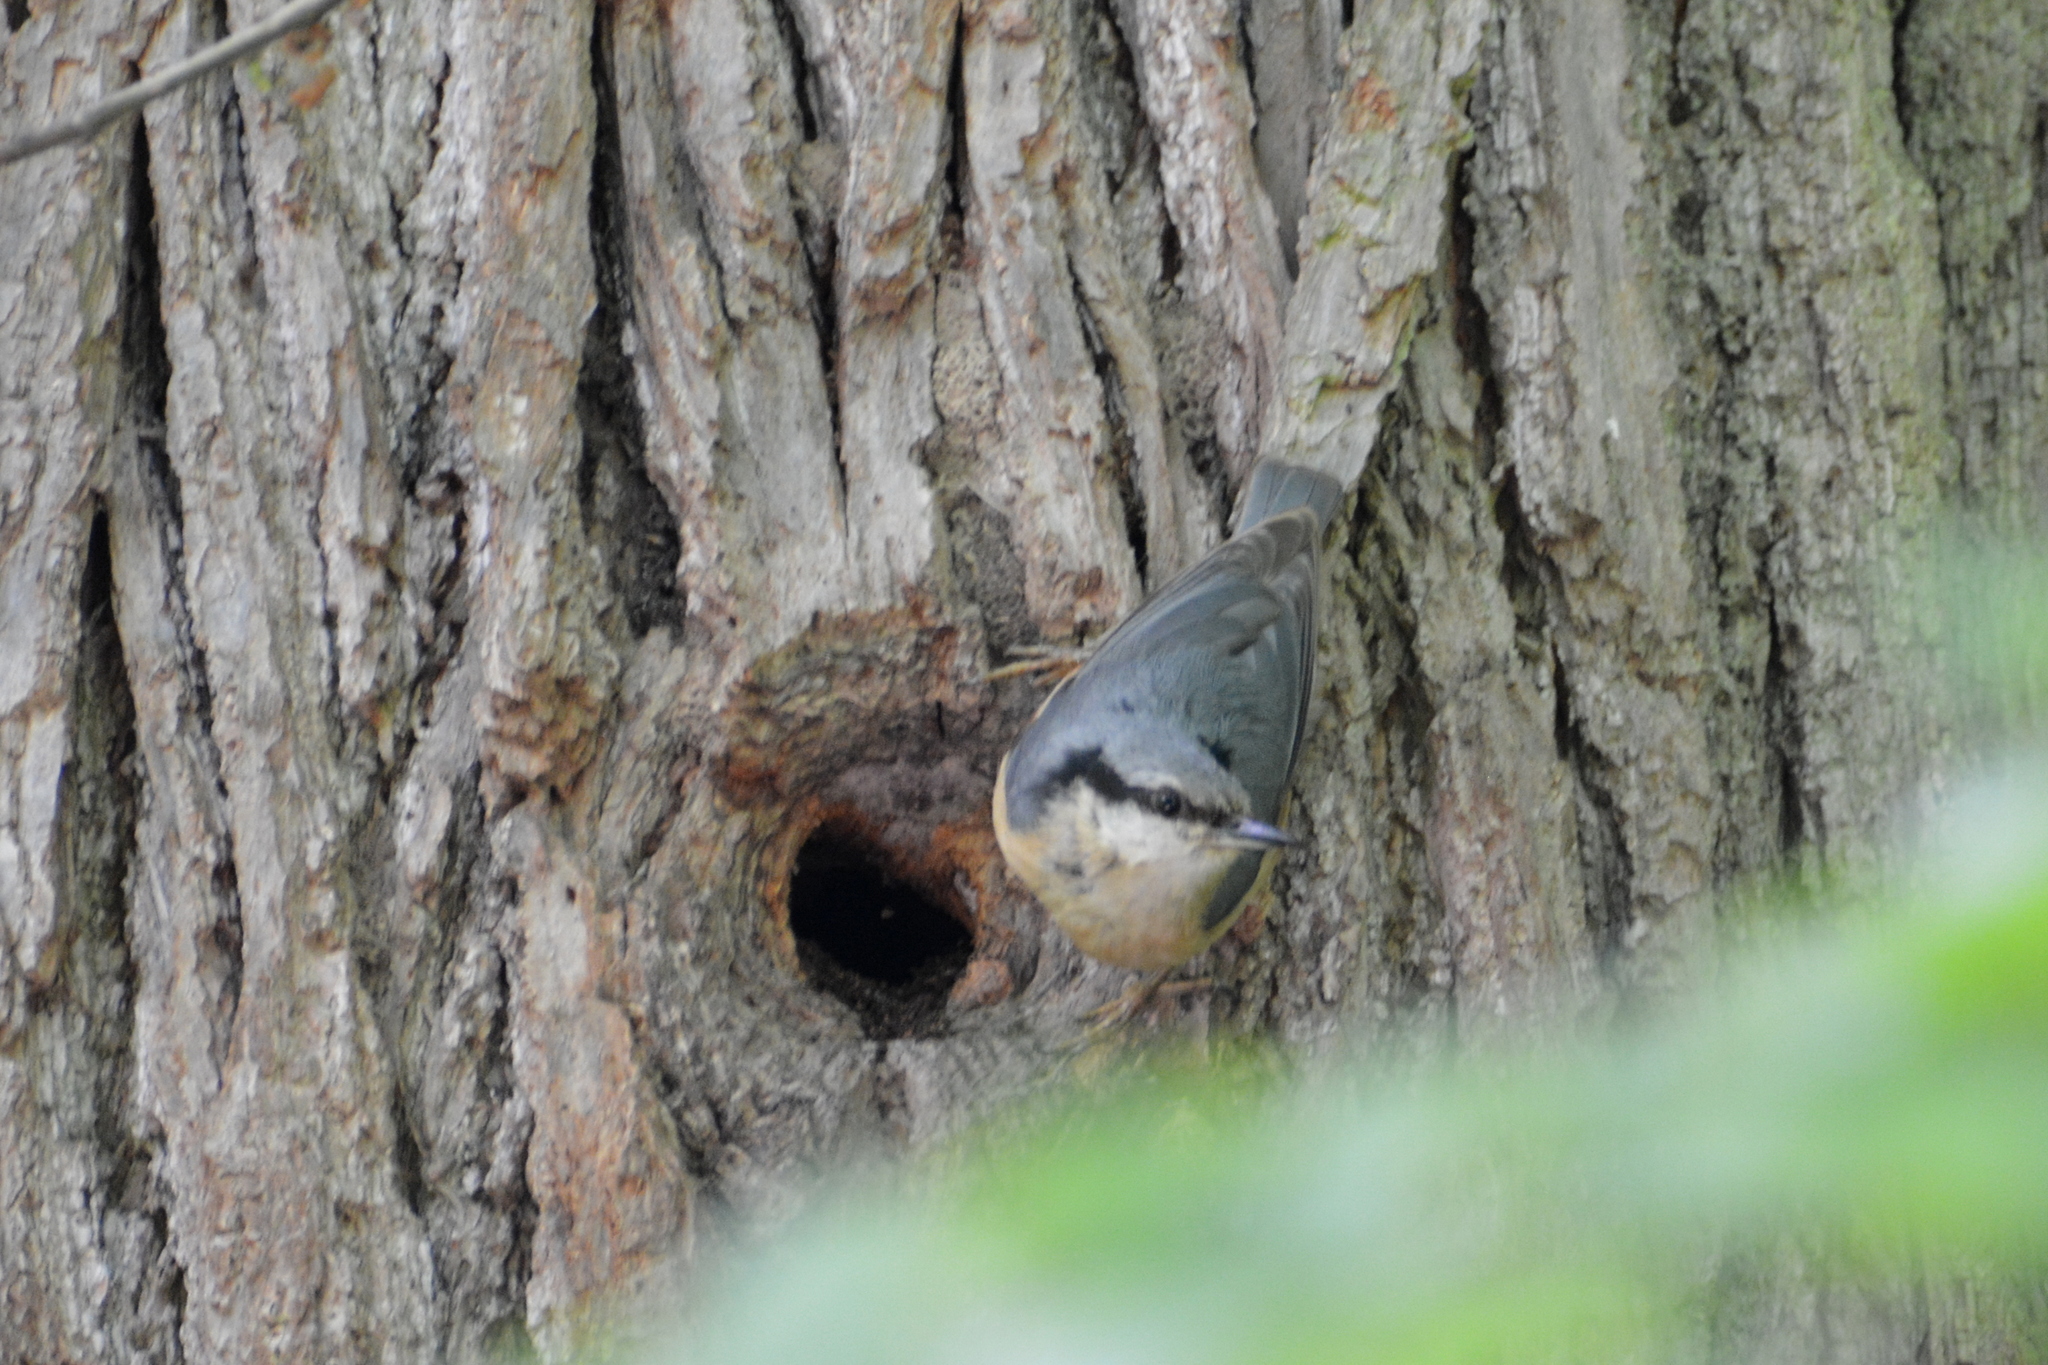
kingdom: Animalia
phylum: Chordata
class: Aves
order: Passeriformes
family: Sittidae
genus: Sitta
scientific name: Sitta europaea
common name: Eurasian nuthatch
